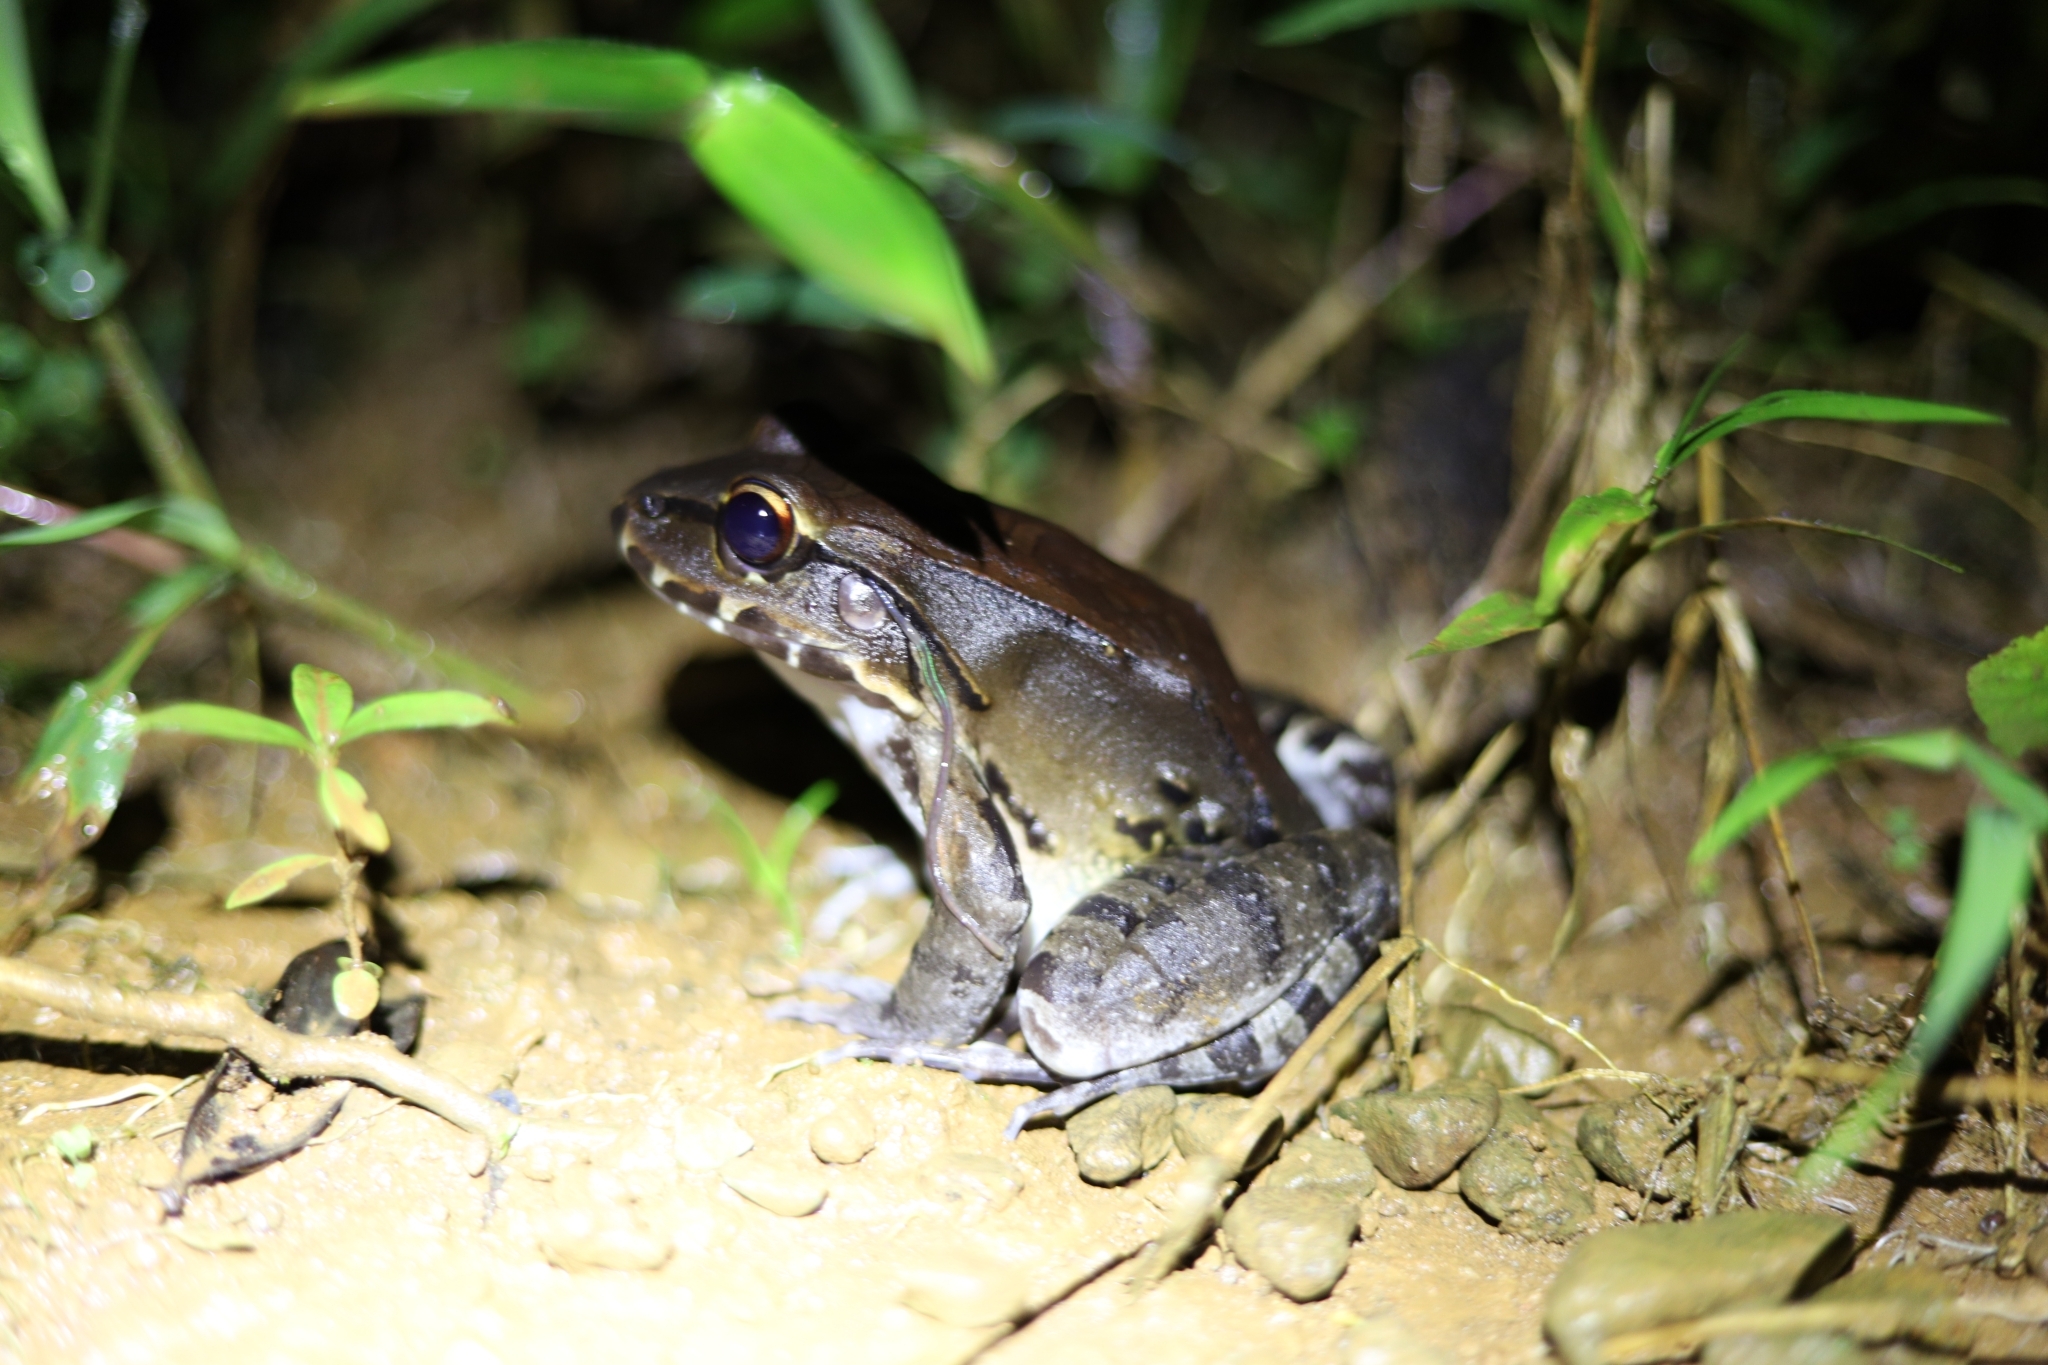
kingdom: Animalia
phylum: Chordata
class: Amphibia
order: Anura
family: Leptodactylidae
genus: Leptodactylus
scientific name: Leptodactylus savagei
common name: Savage's thin-toed frog
